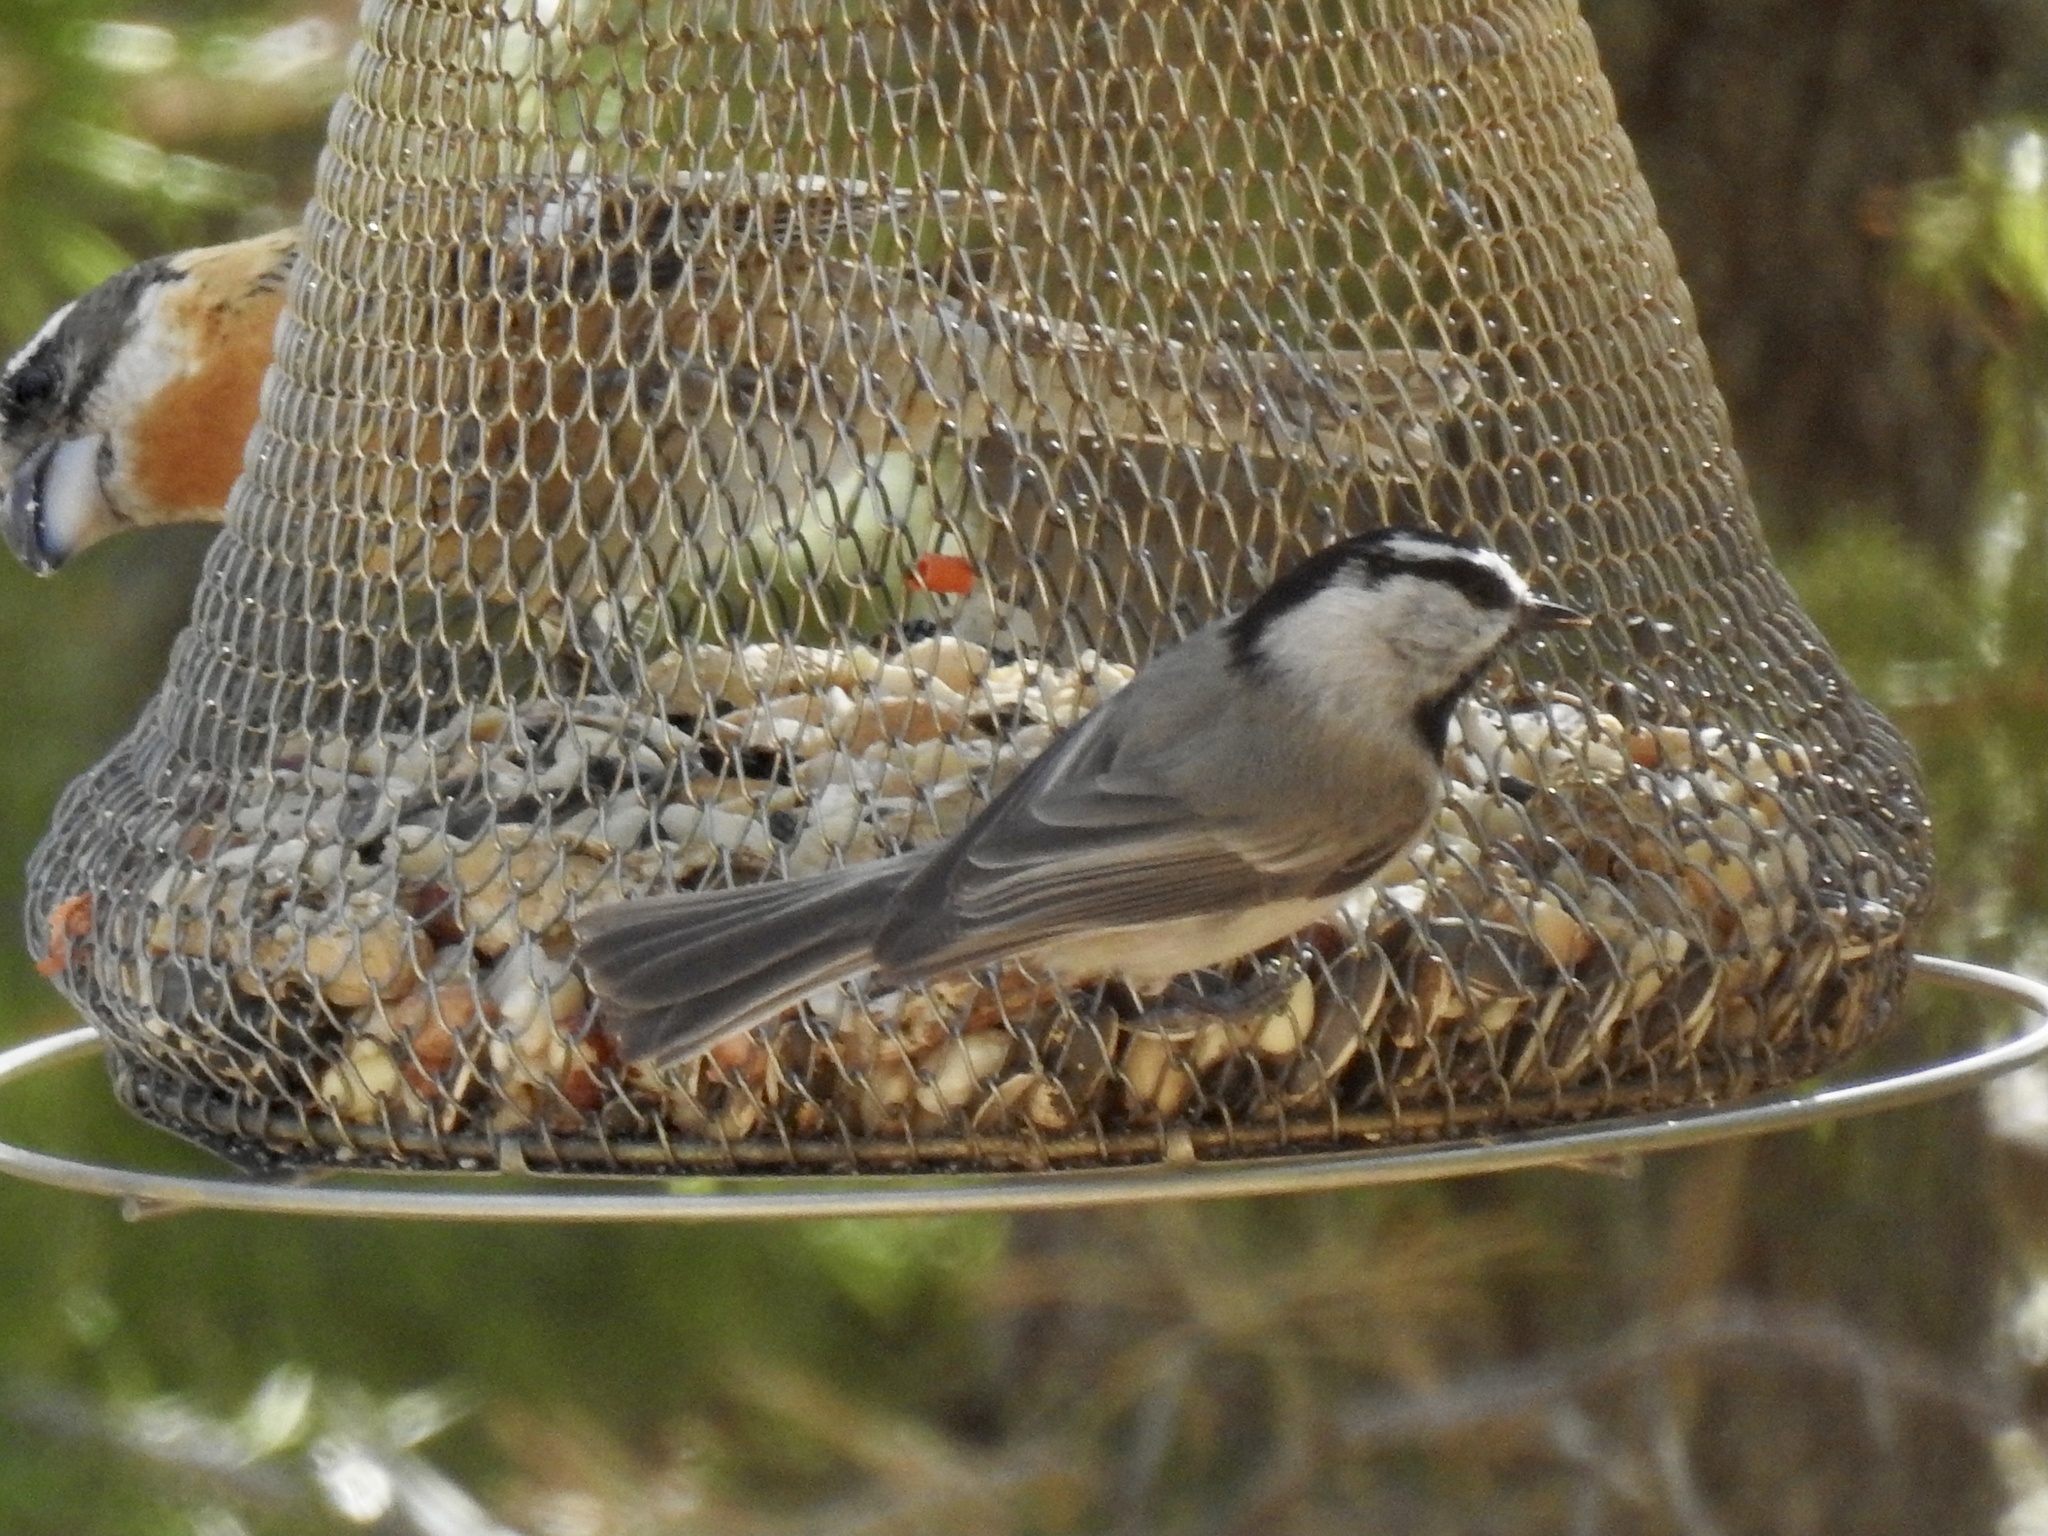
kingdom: Animalia
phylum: Chordata
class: Aves
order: Passeriformes
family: Paridae
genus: Poecile
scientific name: Poecile gambeli
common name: Mountain chickadee
